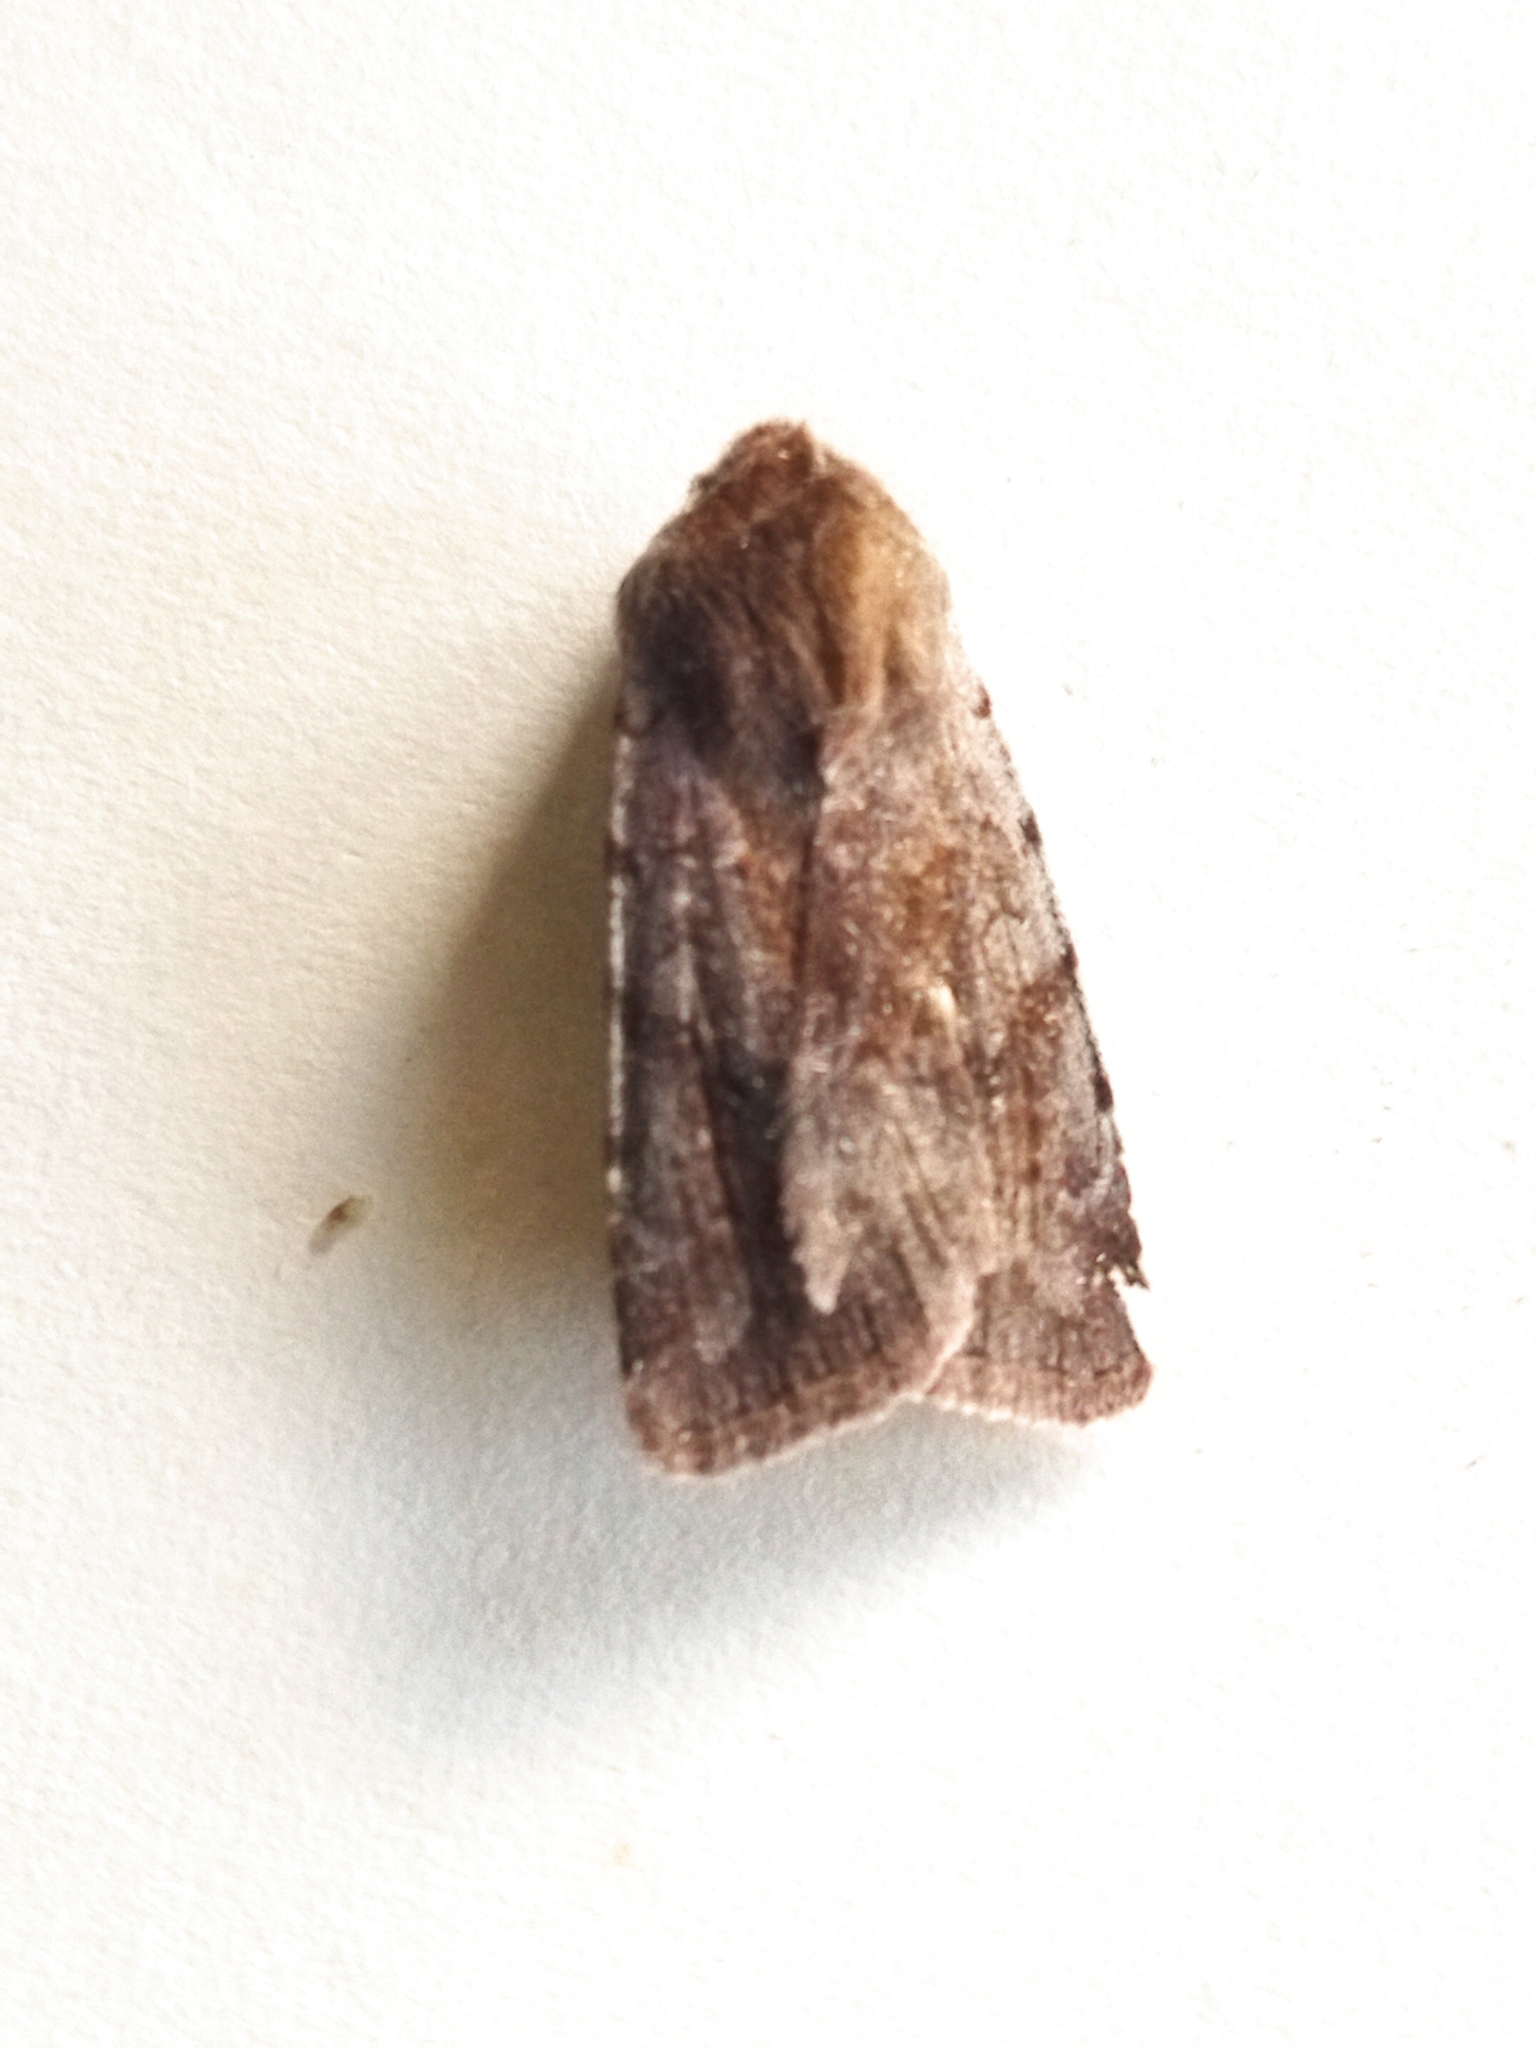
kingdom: Animalia
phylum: Arthropoda
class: Insecta
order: Lepidoptera
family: Noctuidae
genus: Cerastis
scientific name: Cerastis rubricosa
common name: Red chestnut
